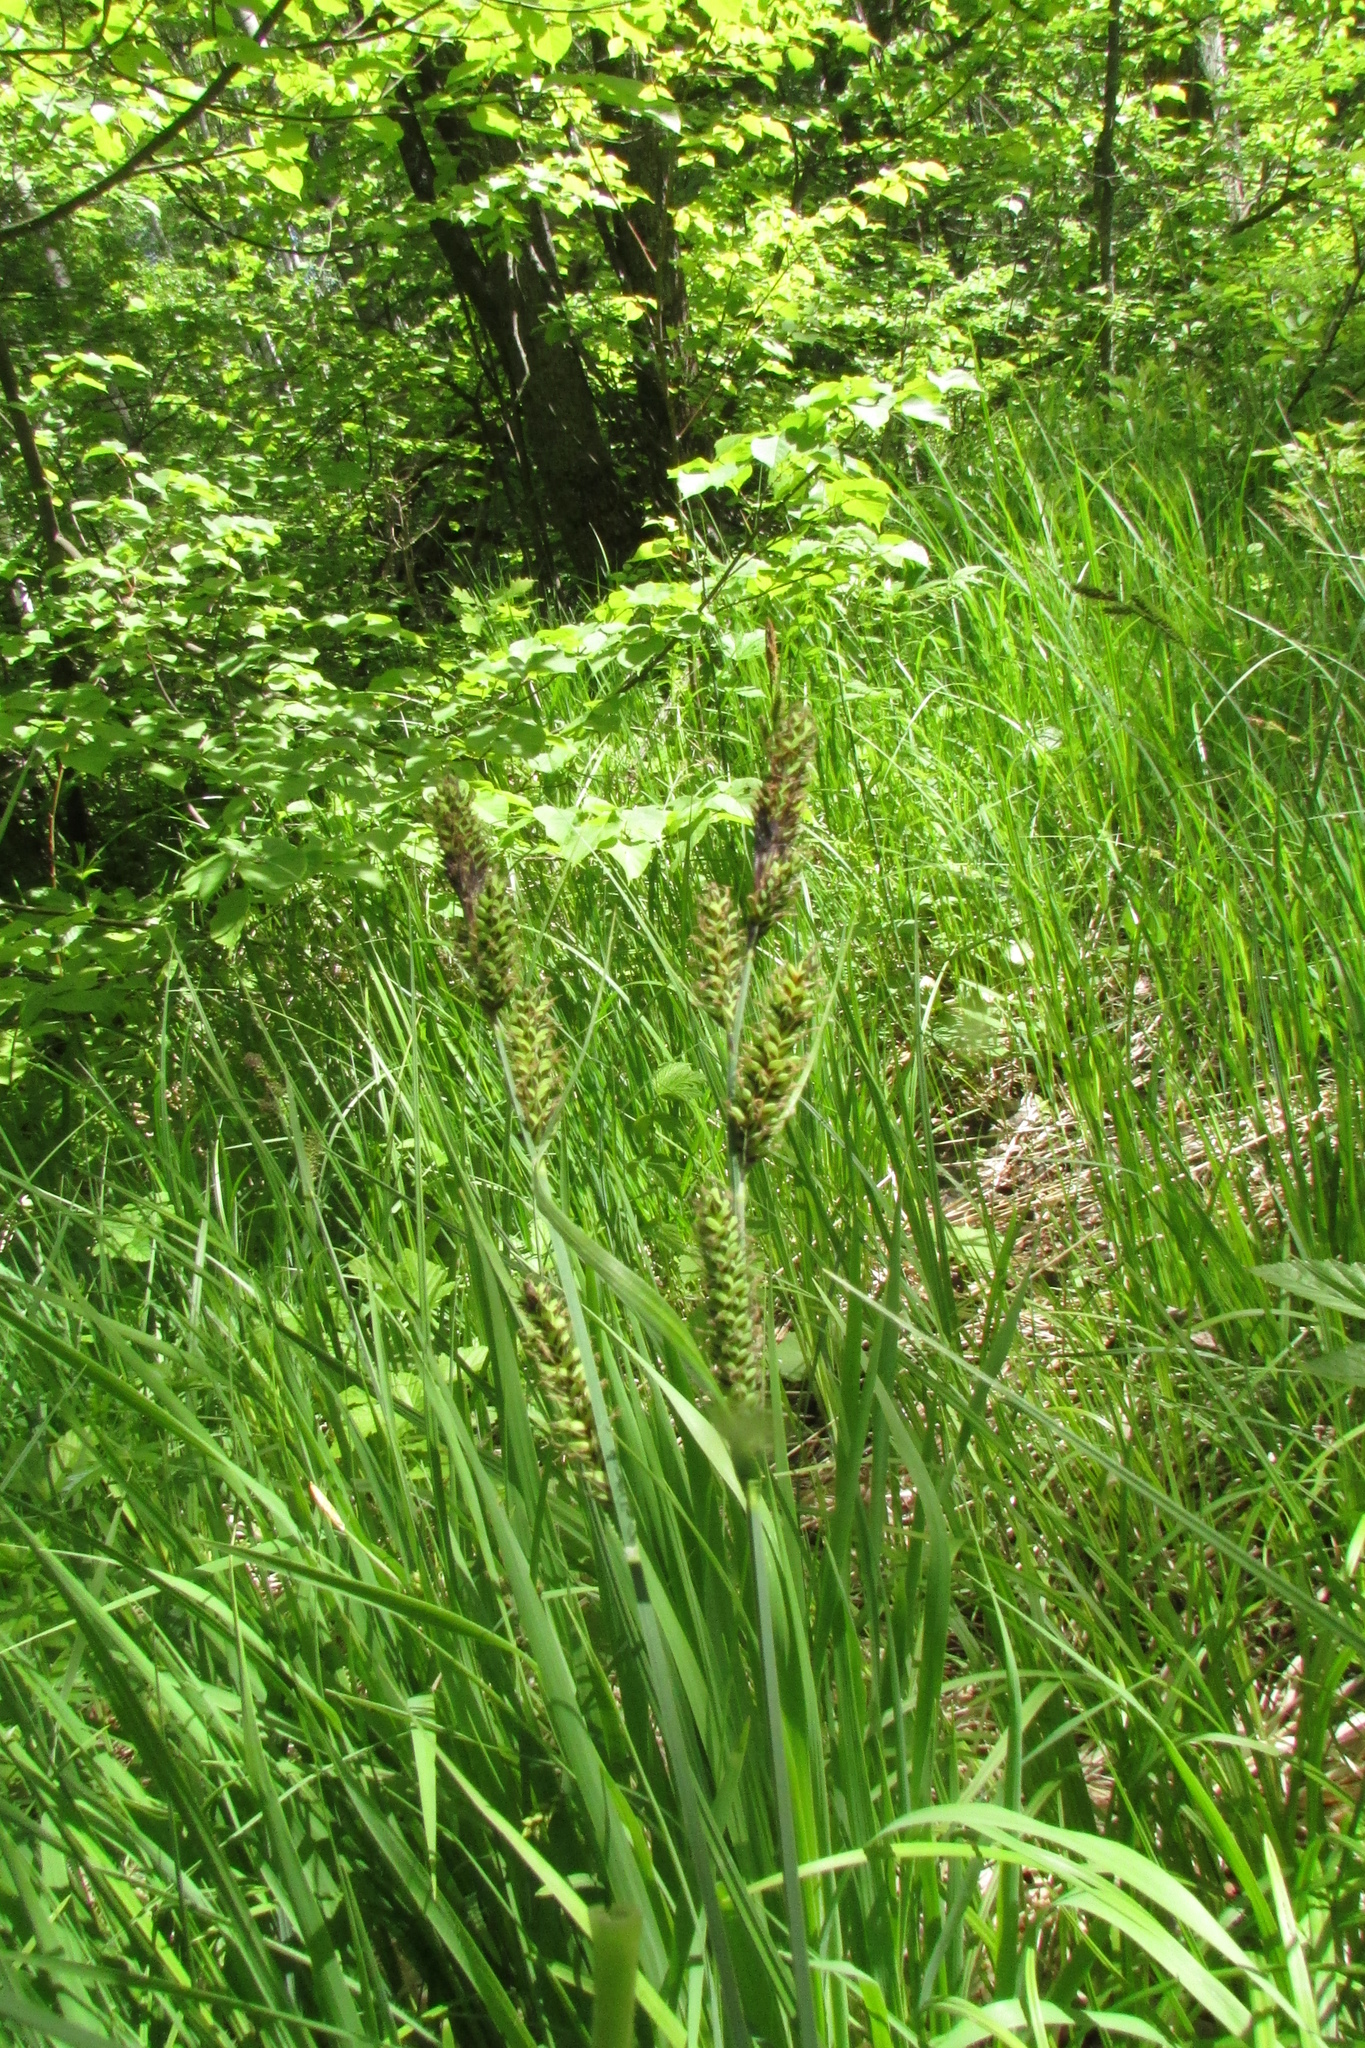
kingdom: Plantae
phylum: Tracheophyta
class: Liliopsida
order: Poales
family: Cyperaceae
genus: Carex
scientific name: Carex hartmaniorum
